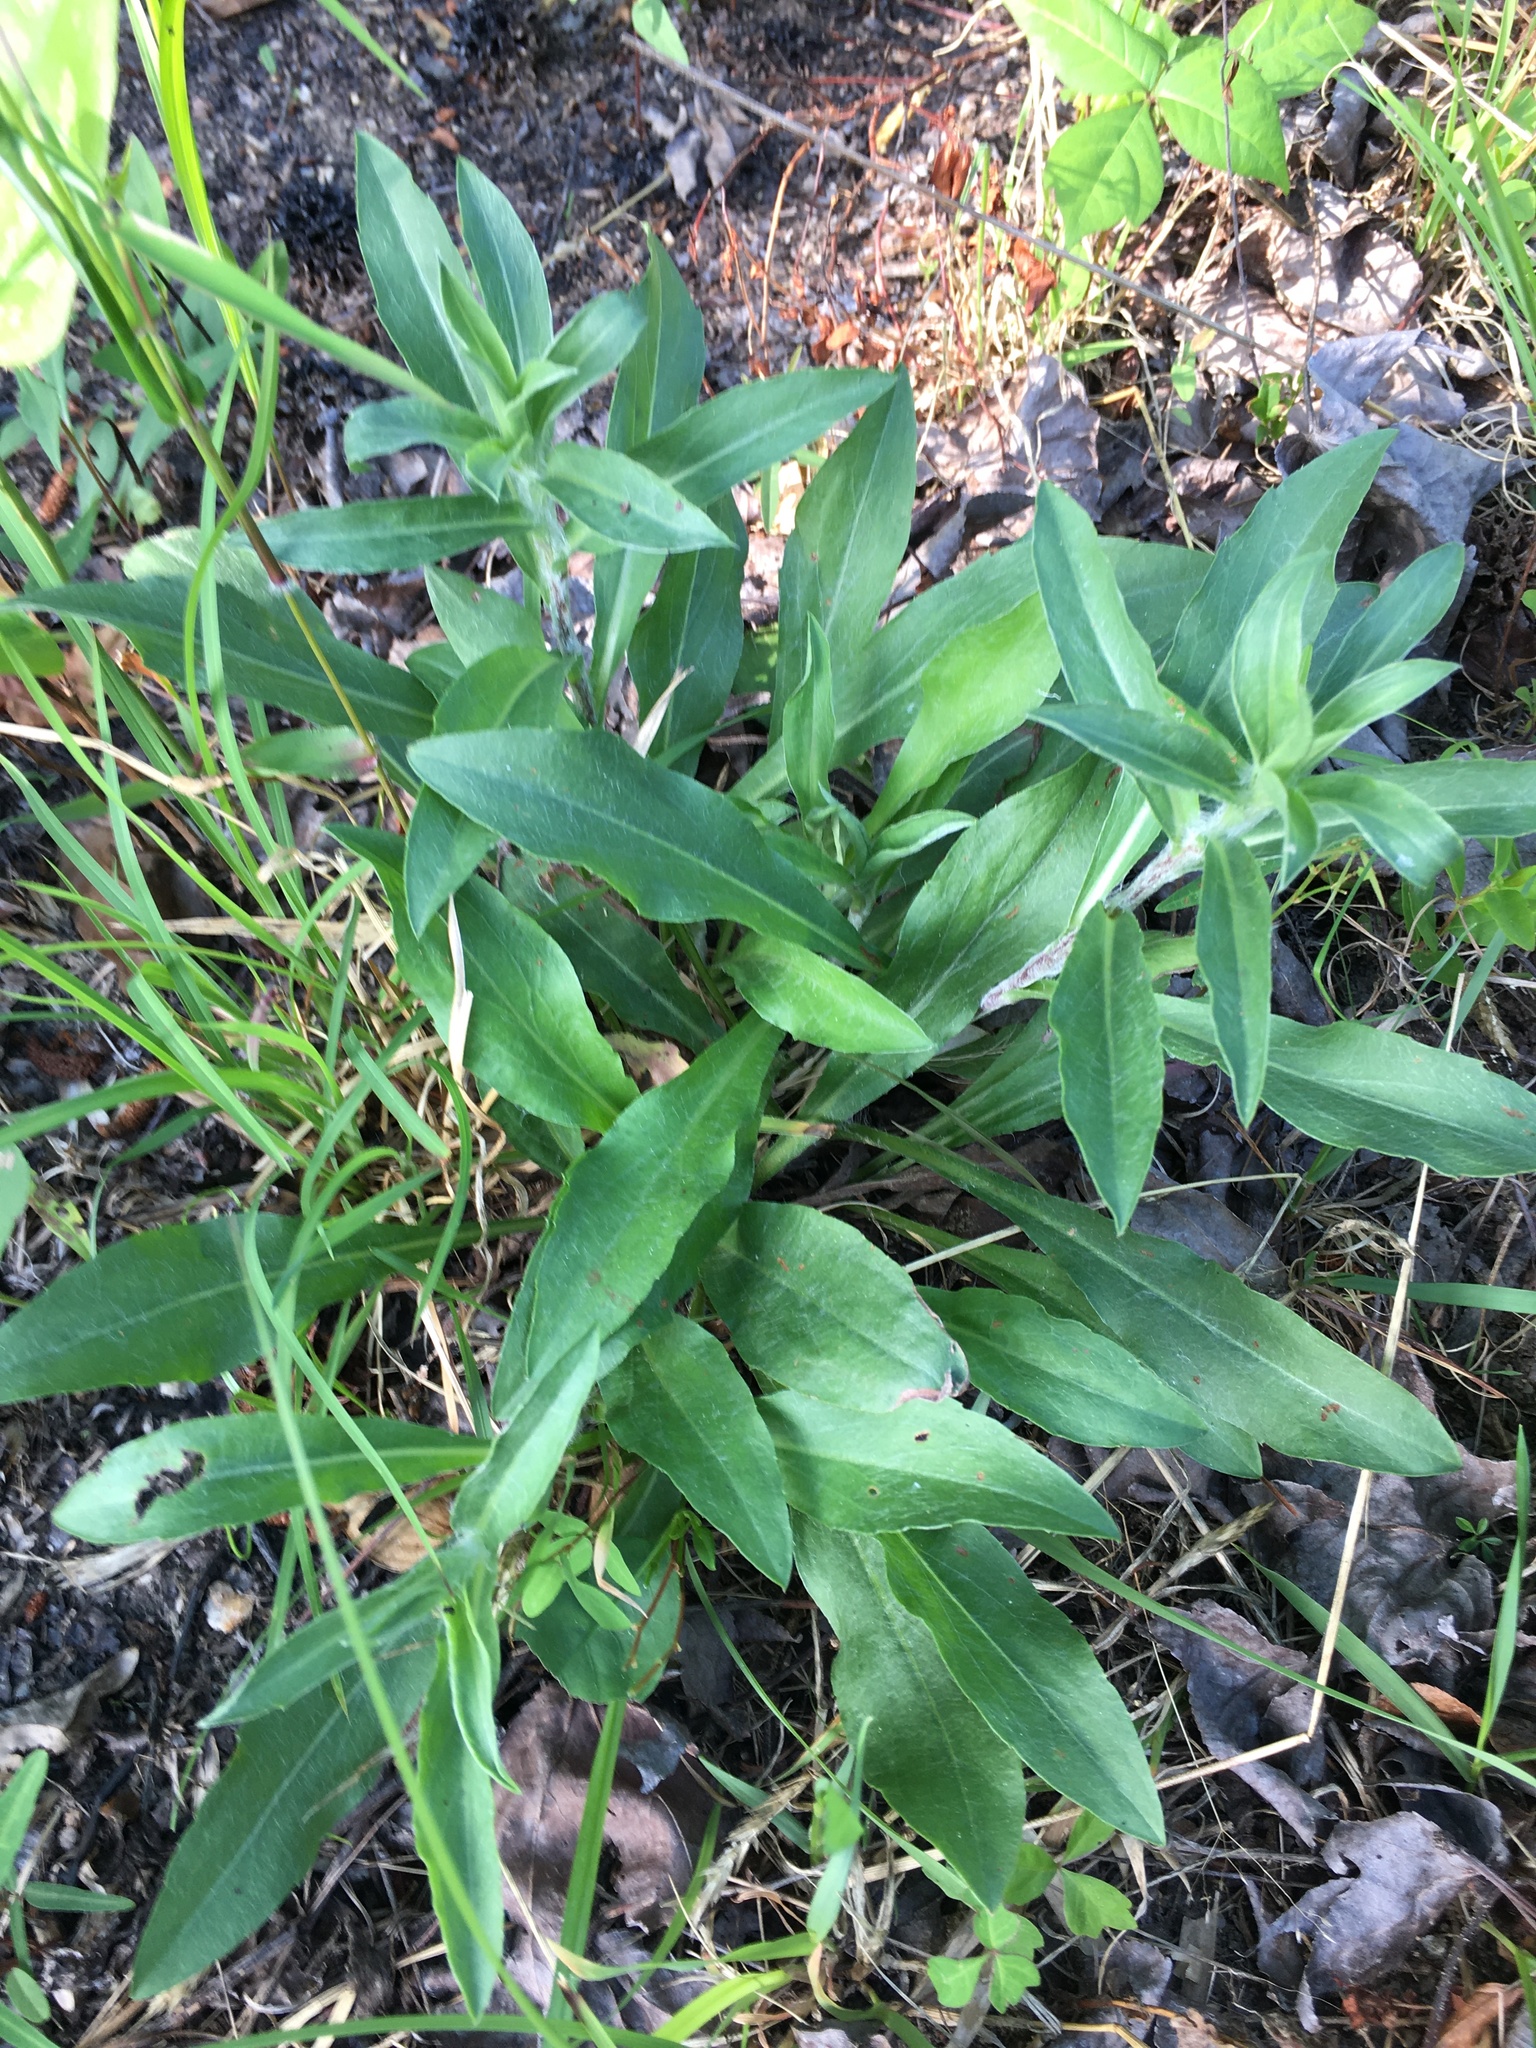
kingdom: Plantae
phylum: Tracheophyta
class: Magnoliopsida
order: Asterales
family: Asteraceae
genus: Chrysopsis
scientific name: Chrysopsis mariana
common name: Maryland golden-aster
